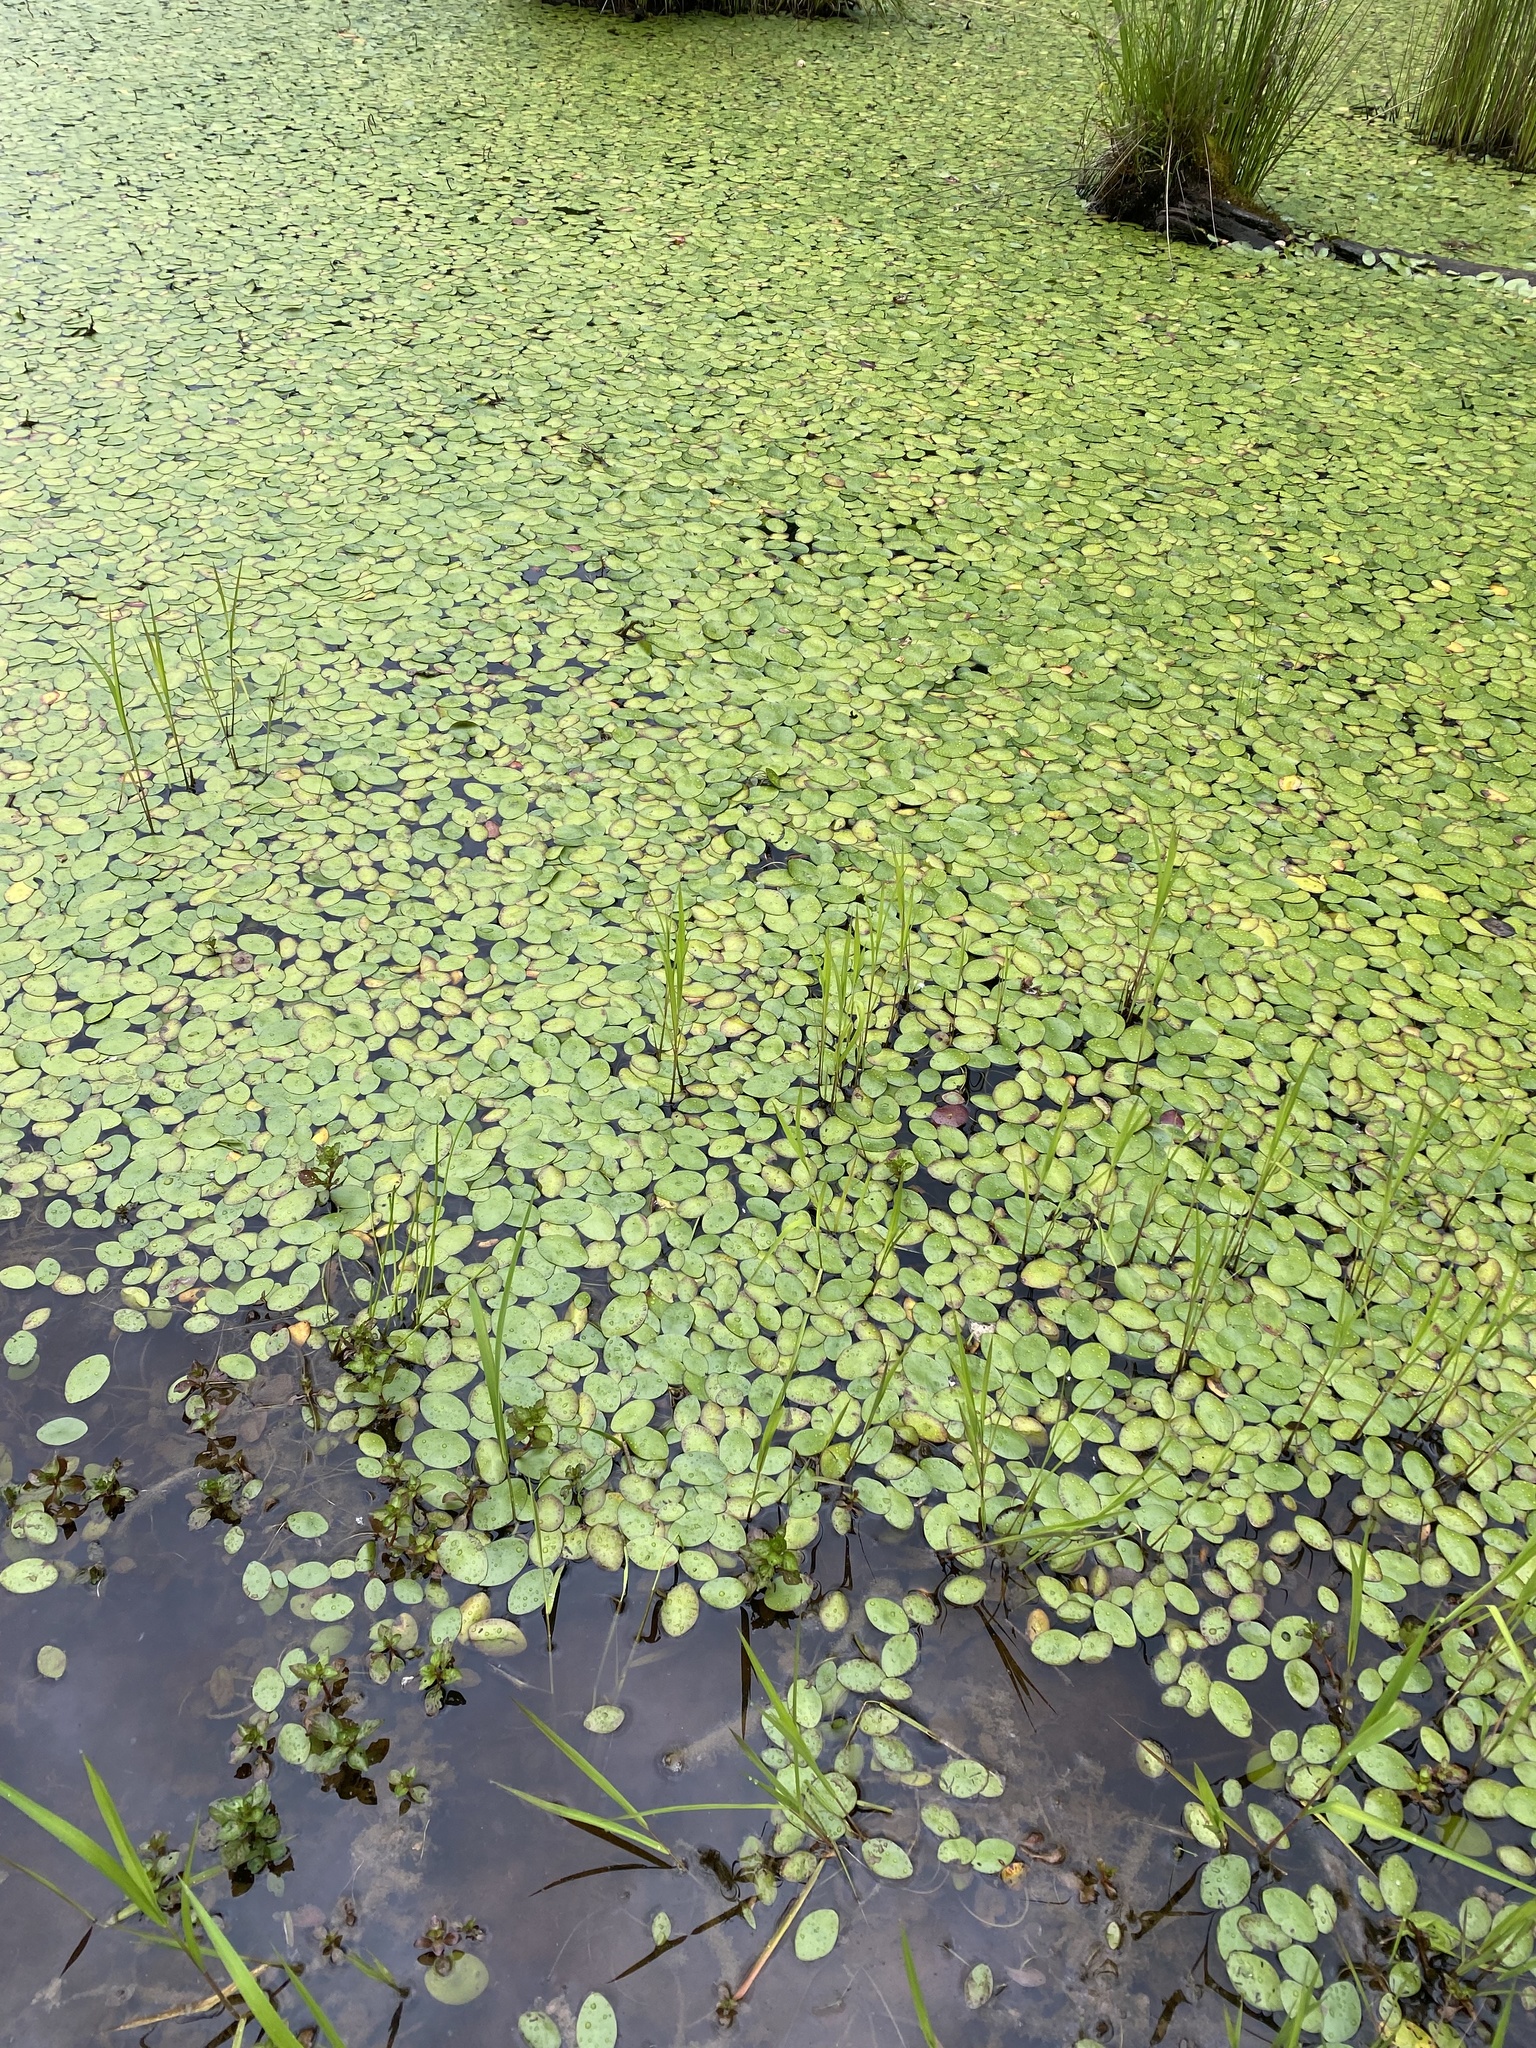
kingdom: Plantae
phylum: Tracheophyta
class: Magnoliopsida
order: Nymphaeales
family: Cabombaceae
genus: Brasenia
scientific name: Brasenia schreberi
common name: Water-shield
